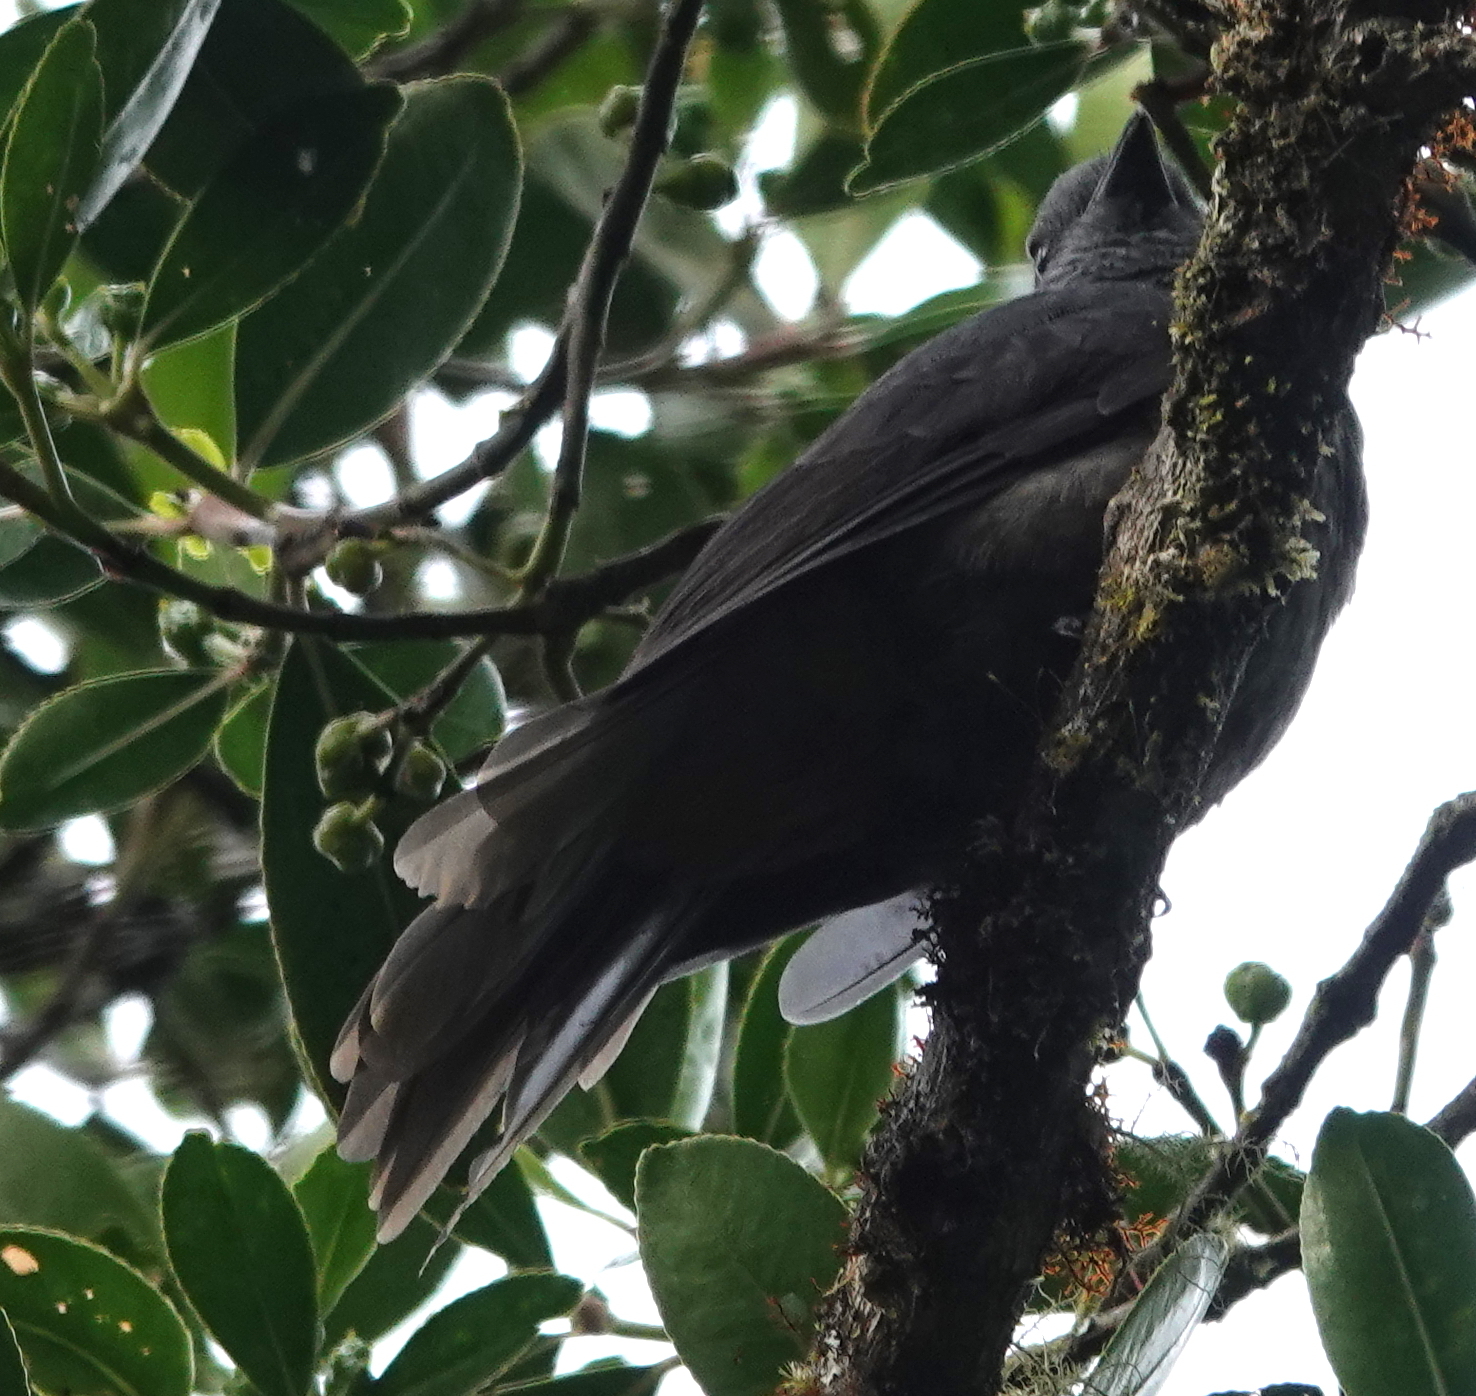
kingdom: Animalia
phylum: Chordata
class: Aves
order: Passeriformes
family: Cotingidae
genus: Lipaugus
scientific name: Lipaugus fuscocinereus
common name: Dusky piha
